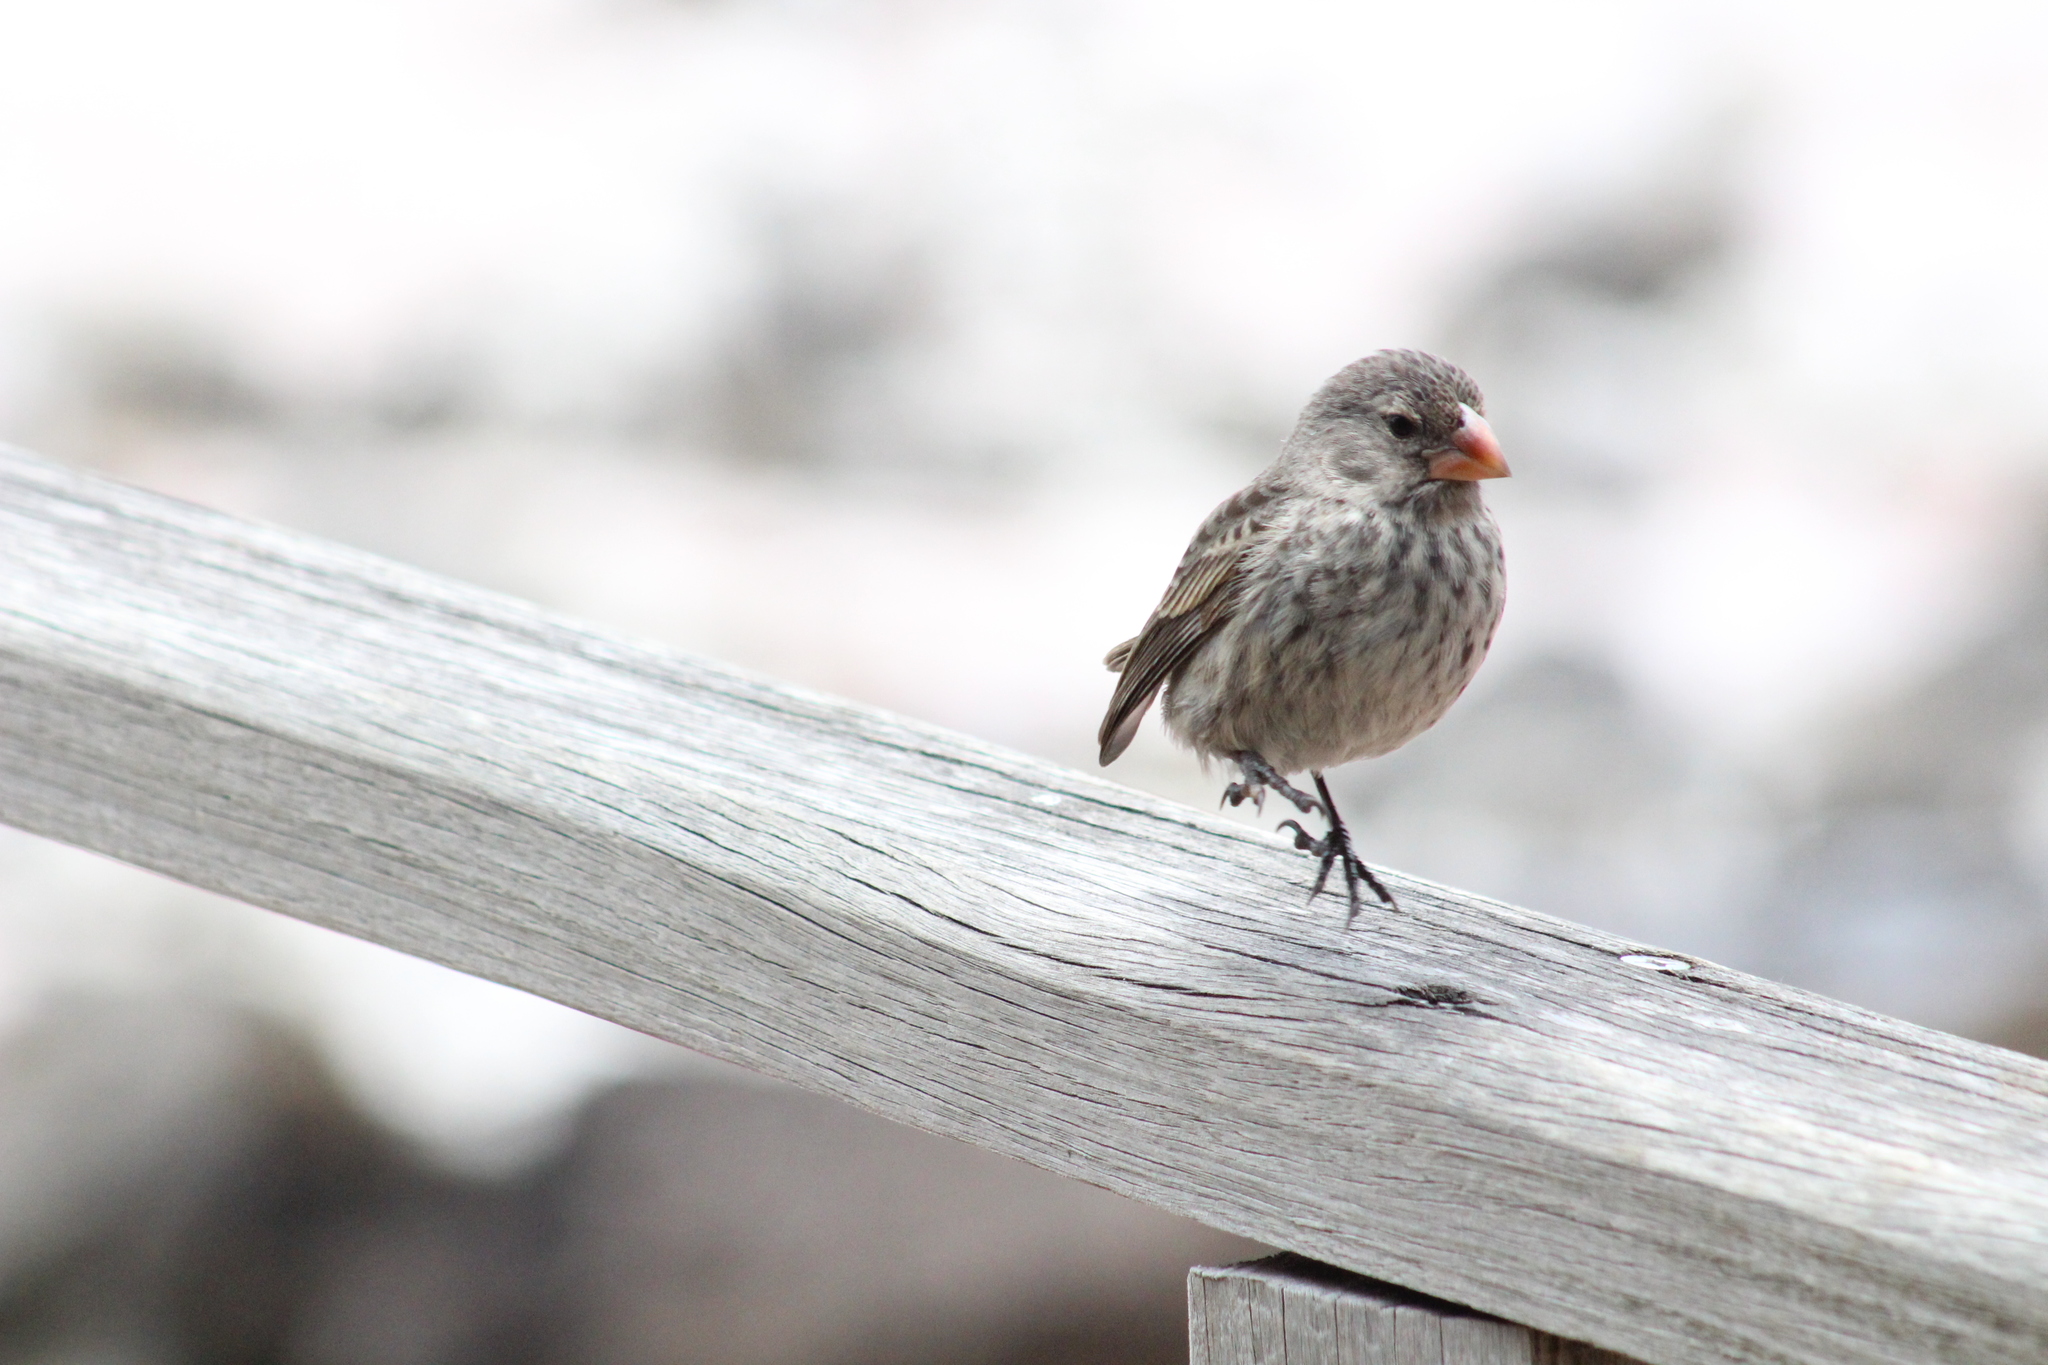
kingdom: Animalia
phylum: Chordata
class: Aves
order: Passeriformes
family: Thraupidae
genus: Geospiza
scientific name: Geospiza fortis
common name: Medium ground finch
